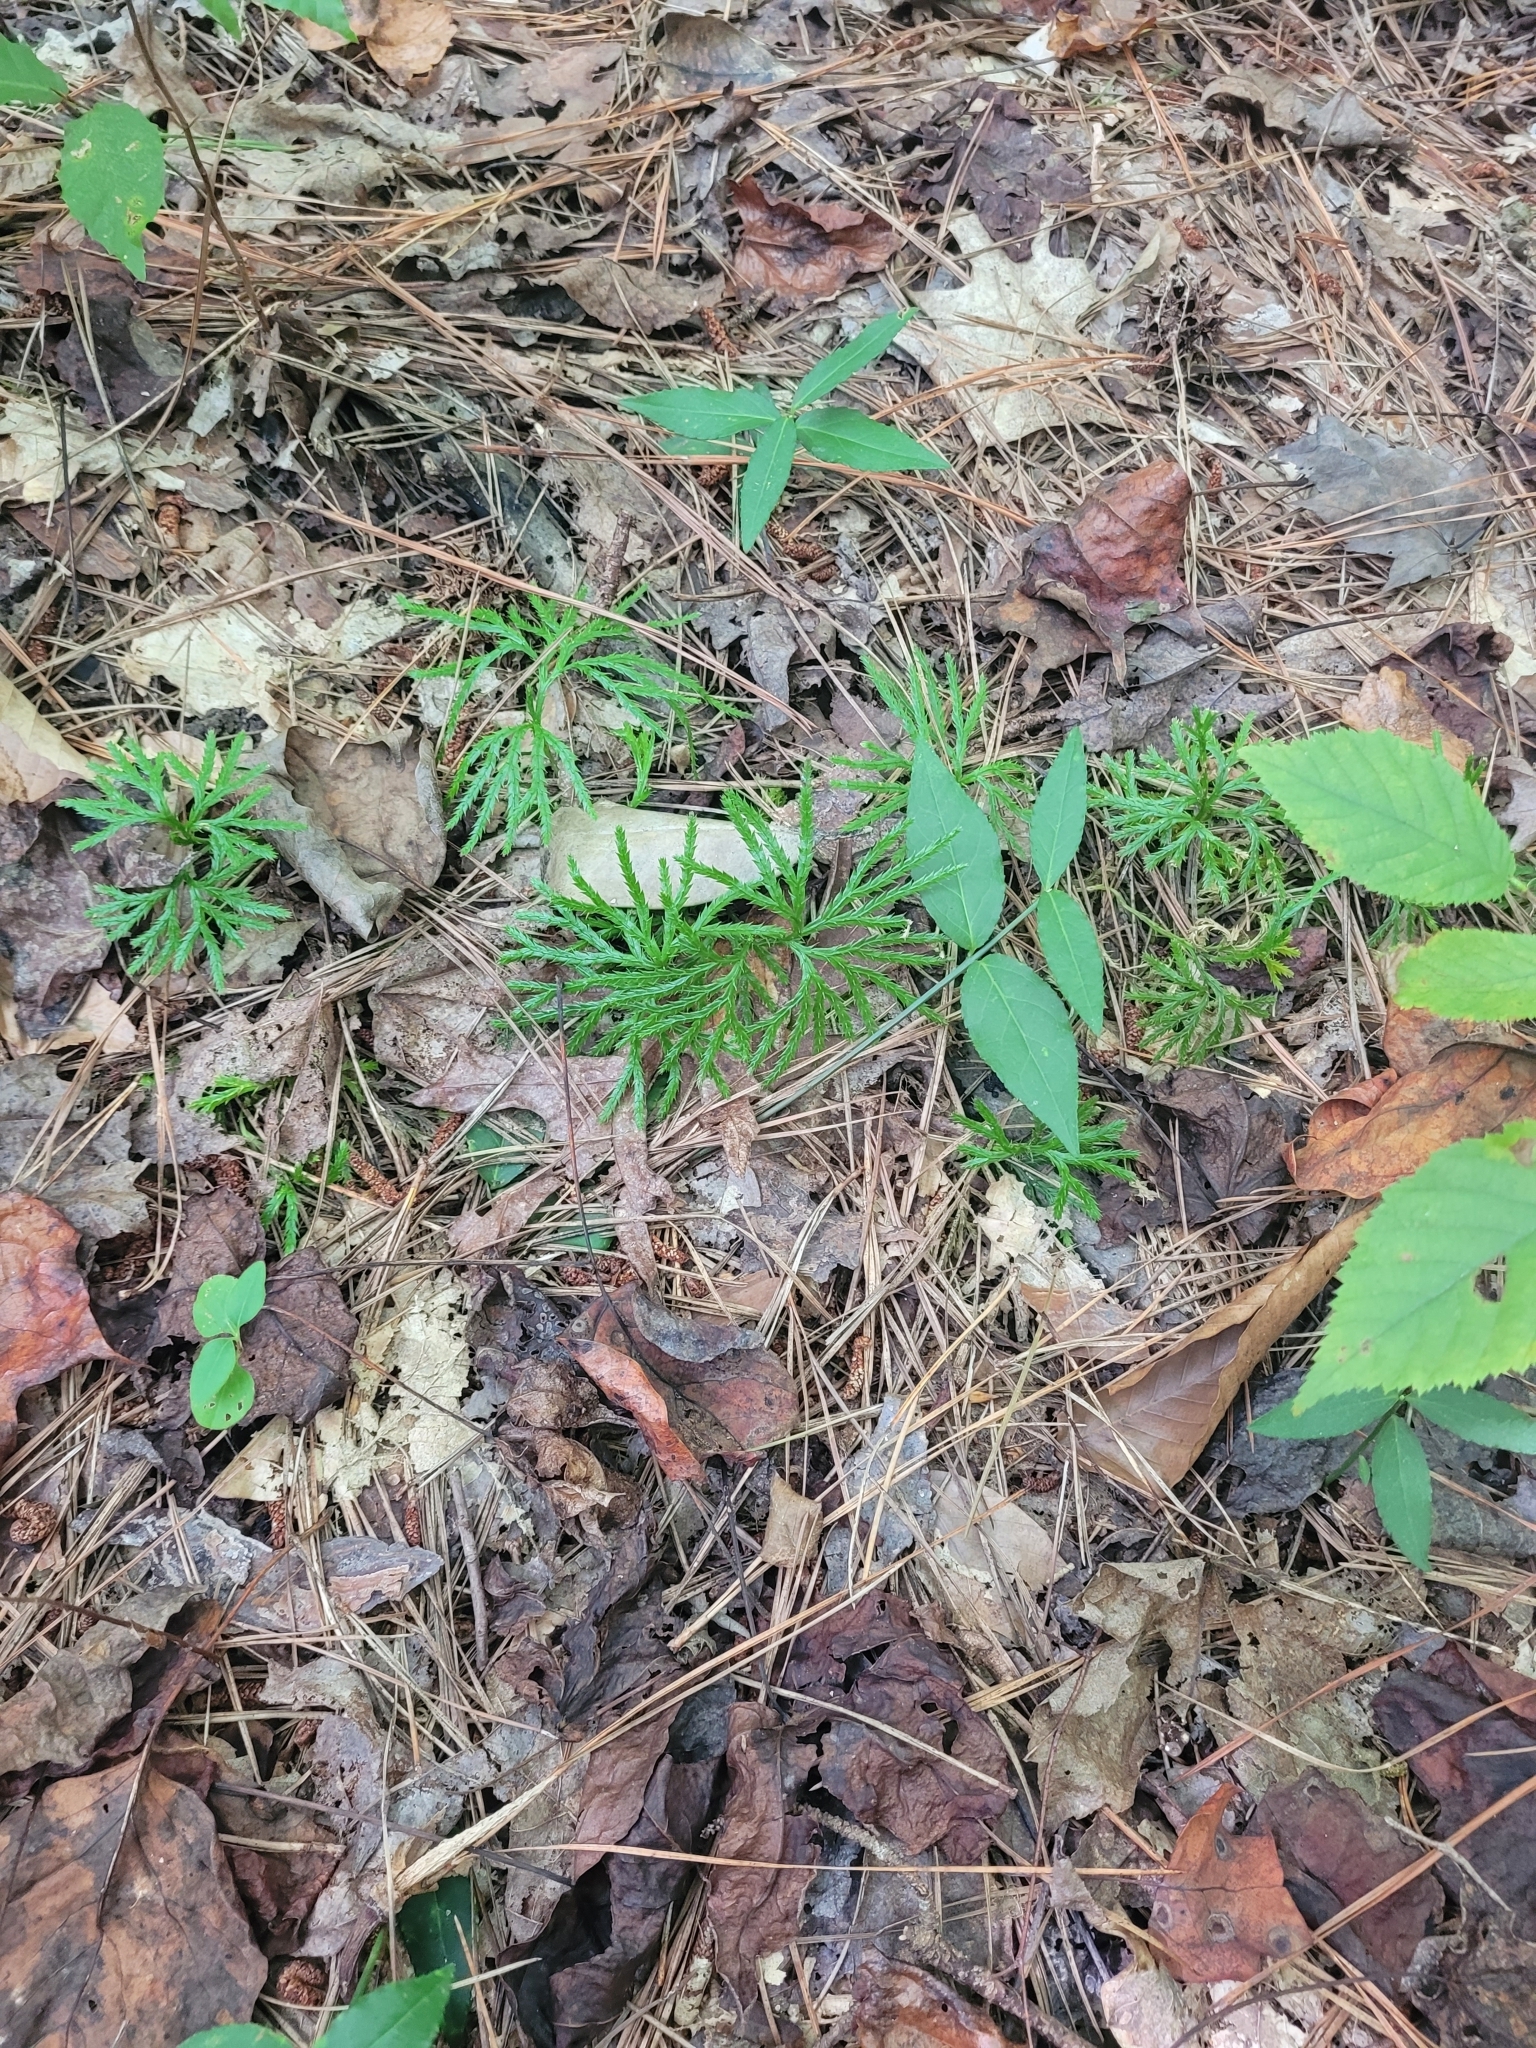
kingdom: Plantae
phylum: Tracheophyta
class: Lycopodiopsida
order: Lycopodiales
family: Lycopodiaceae
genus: Diphasiastrum
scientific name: Diphasiastrum digitatum
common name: Southern running-pine
